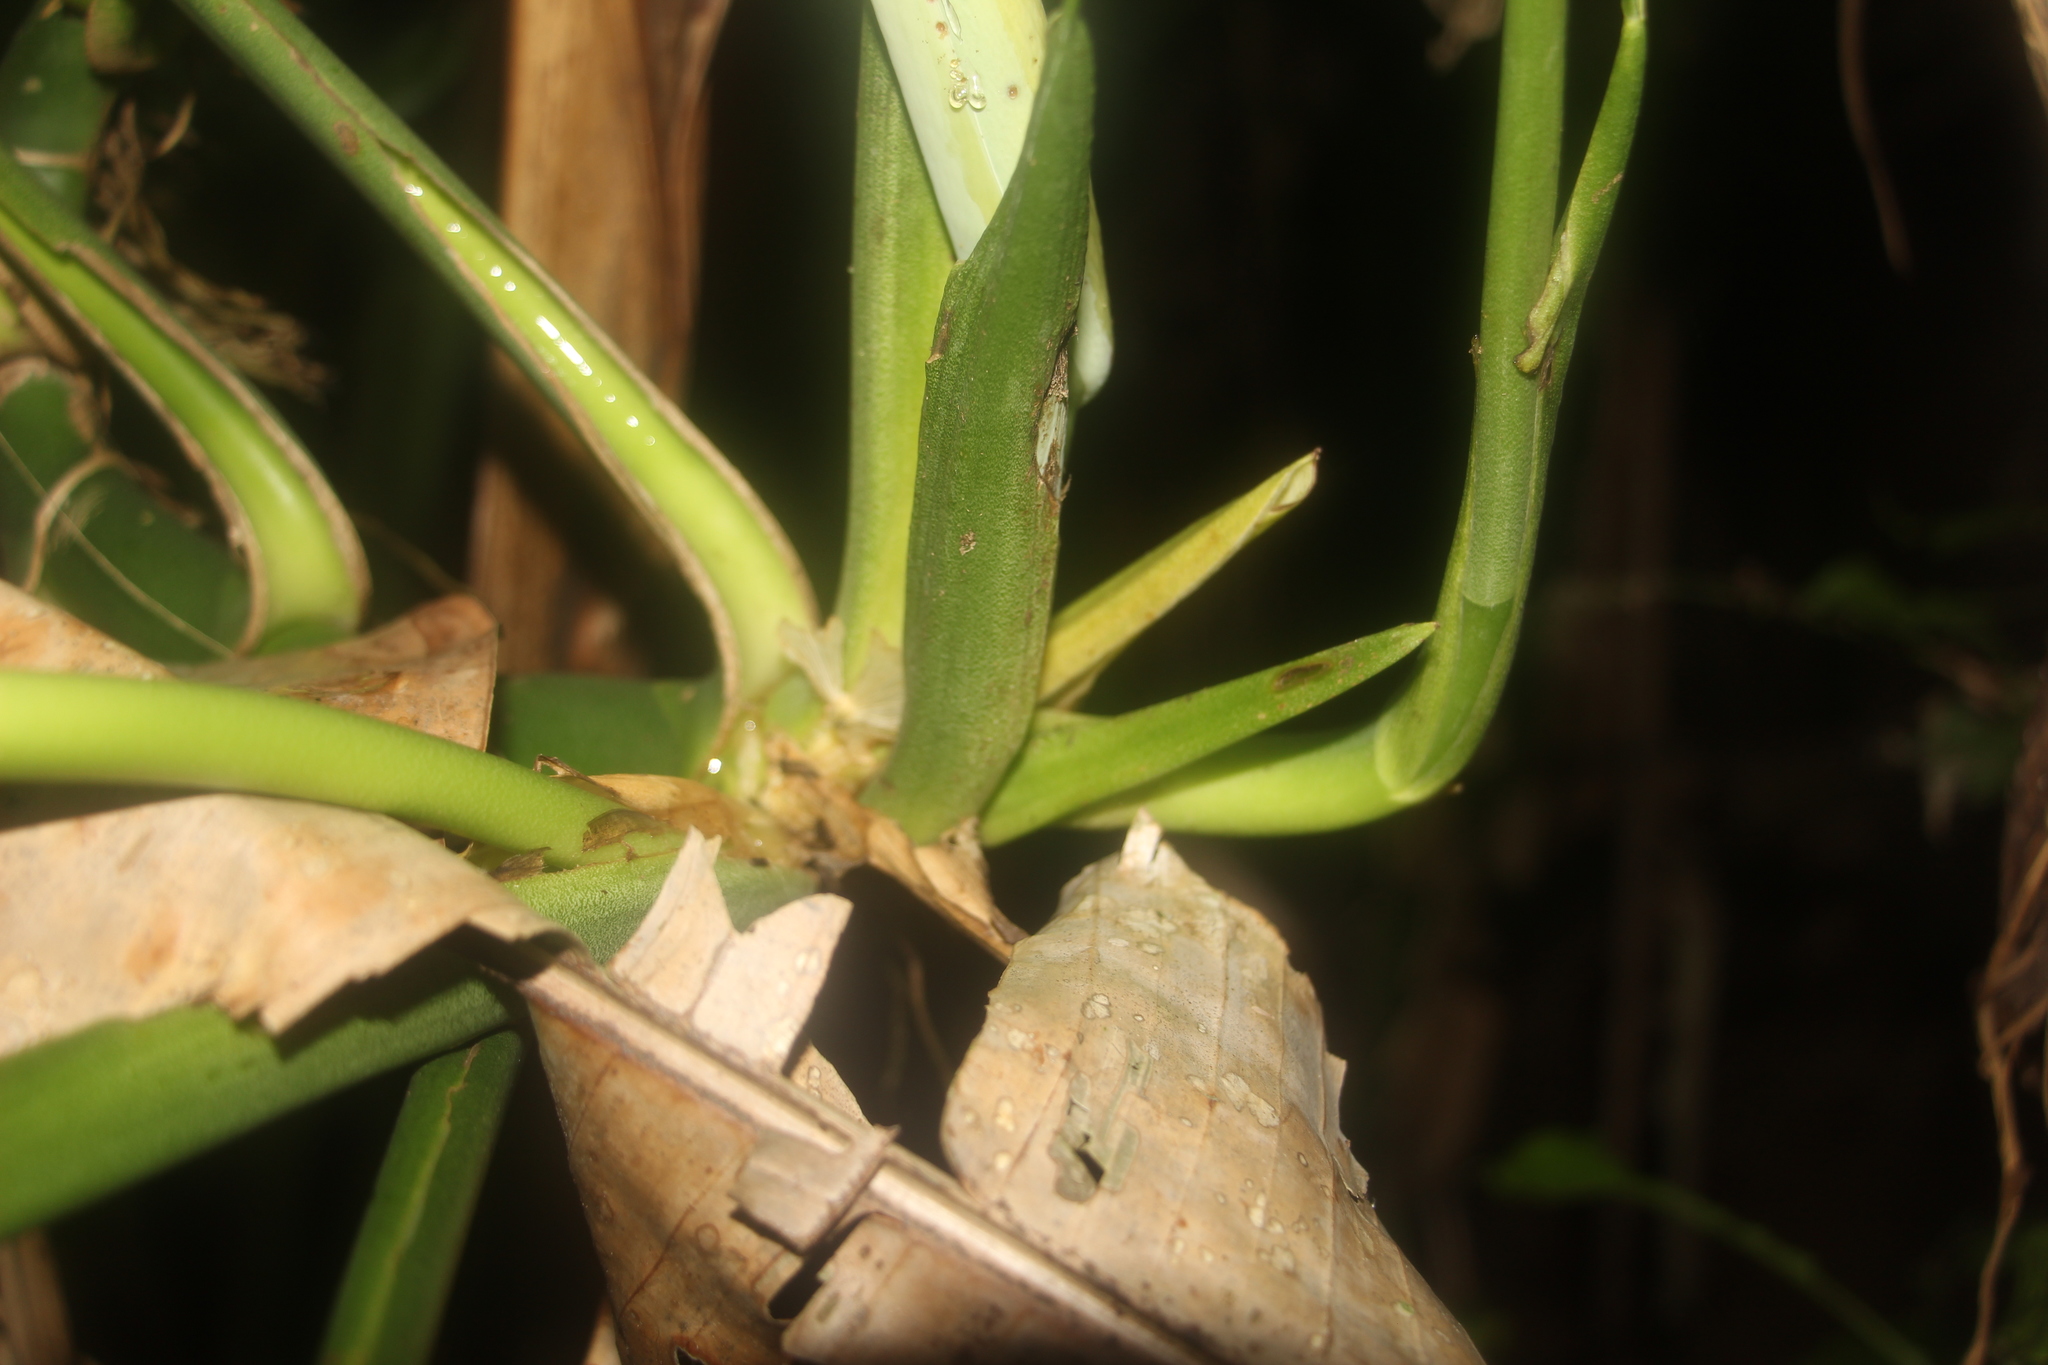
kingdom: Plantae
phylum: Tracheophyta
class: Liliopsida
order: Alismatales
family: Araceae
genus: Monstera
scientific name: Monstera adansonii
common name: Tarovine
